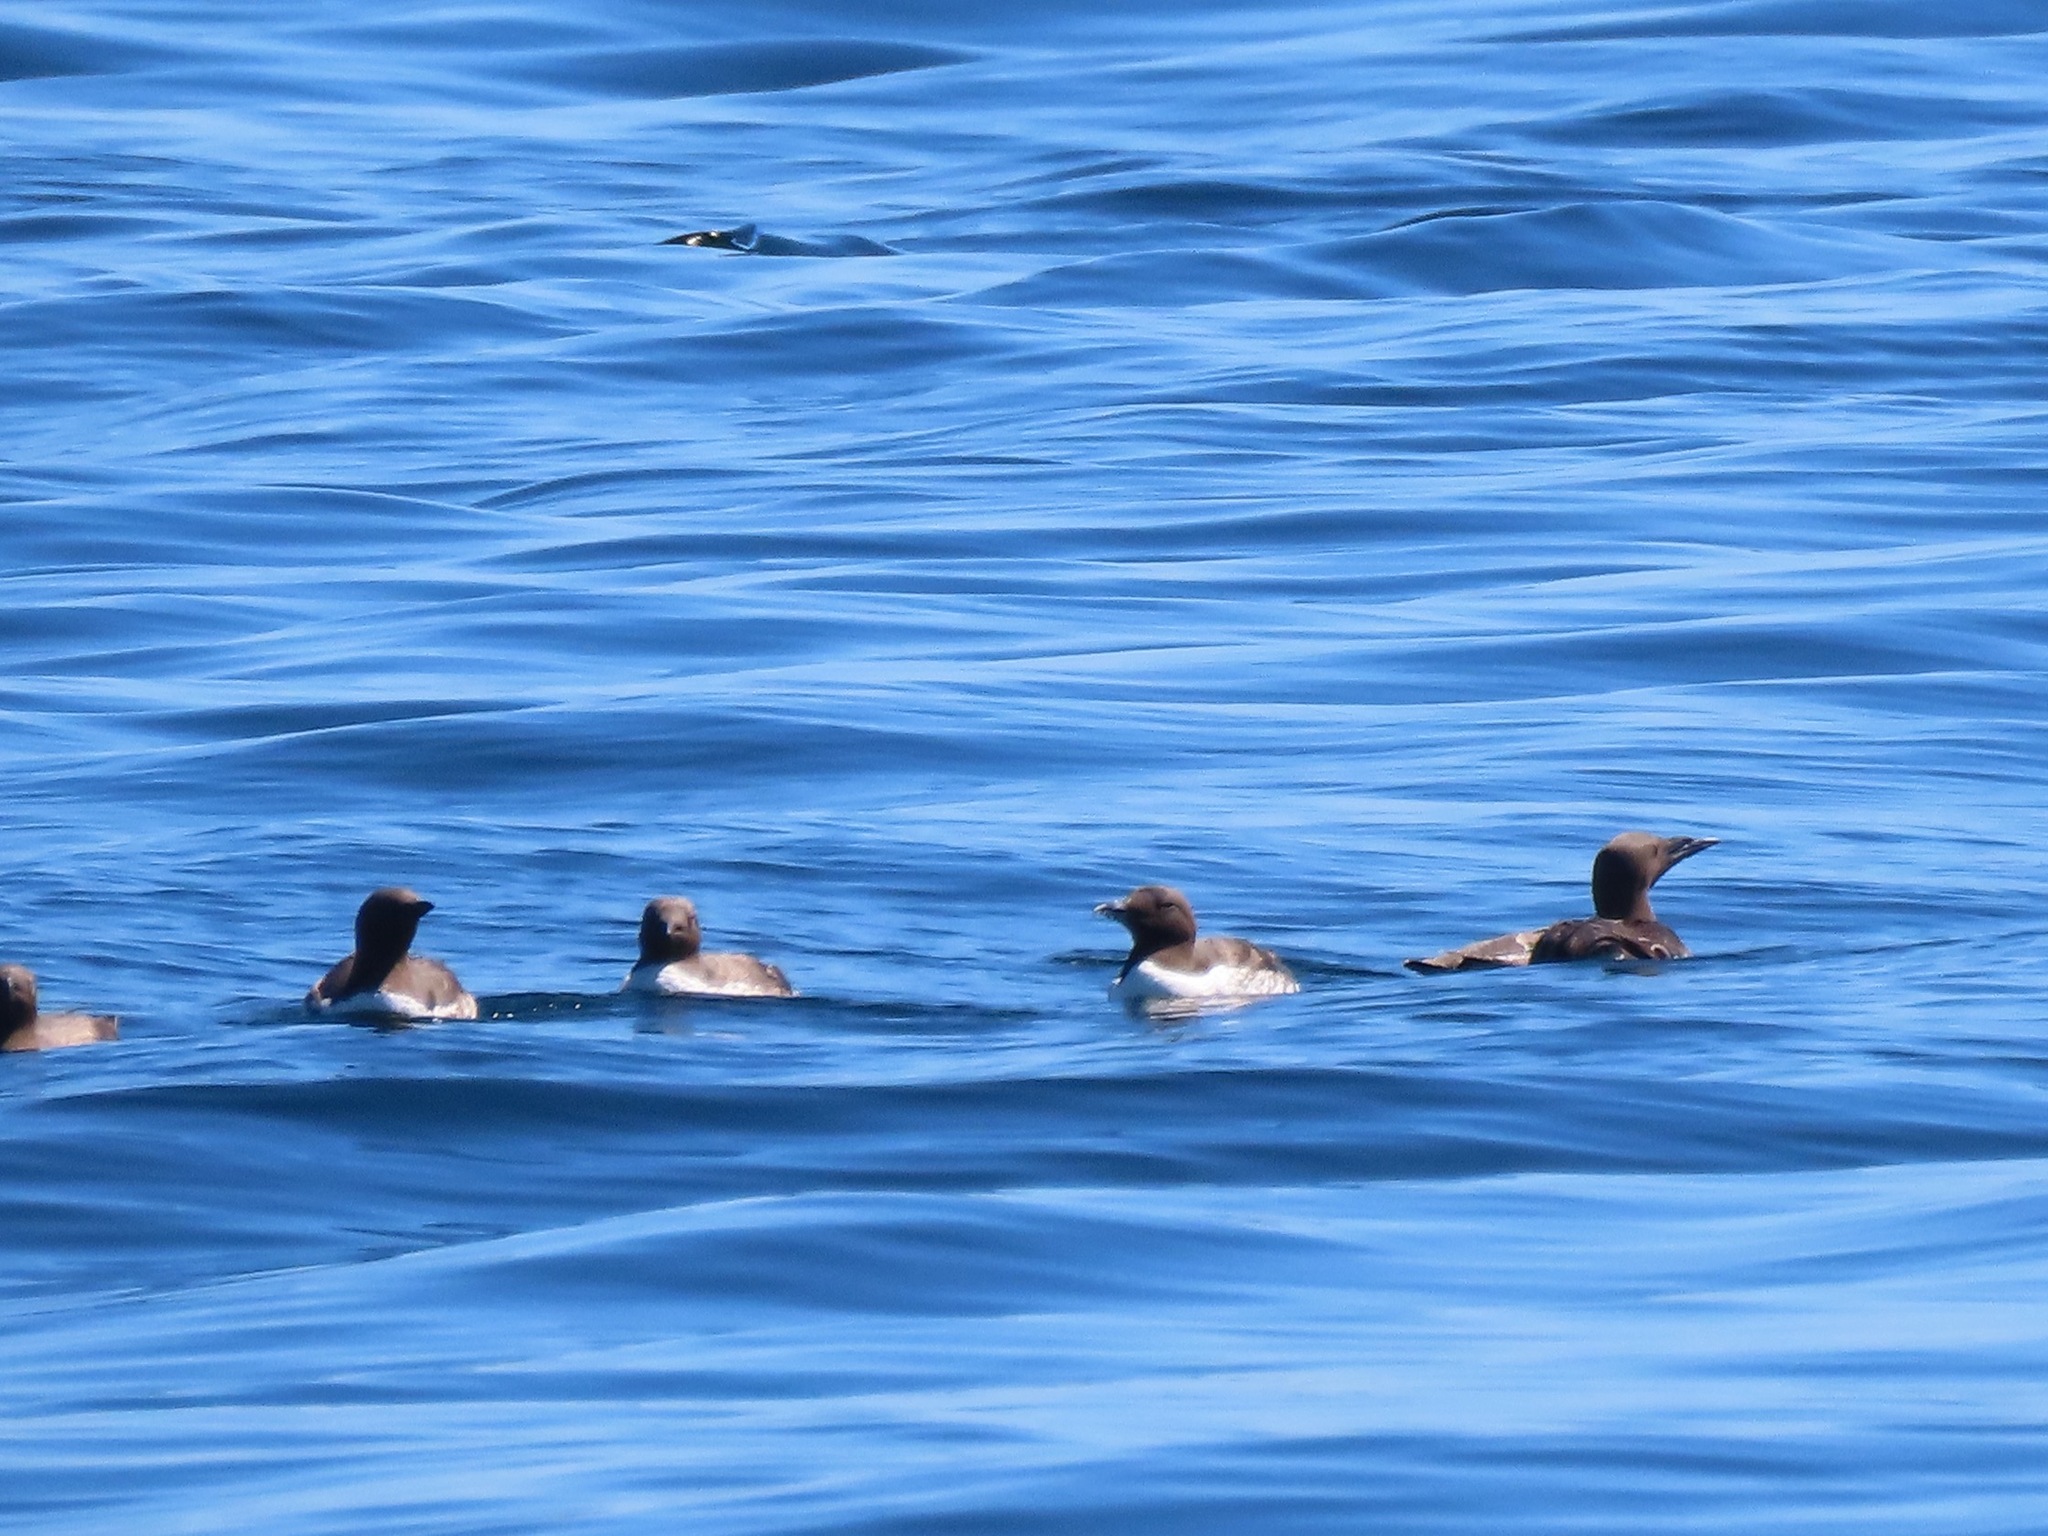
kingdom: Animalia
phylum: Chordata
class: Aves
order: Charadriiformes
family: Alcidae
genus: Uria
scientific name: Uria aalge
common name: Common murre
